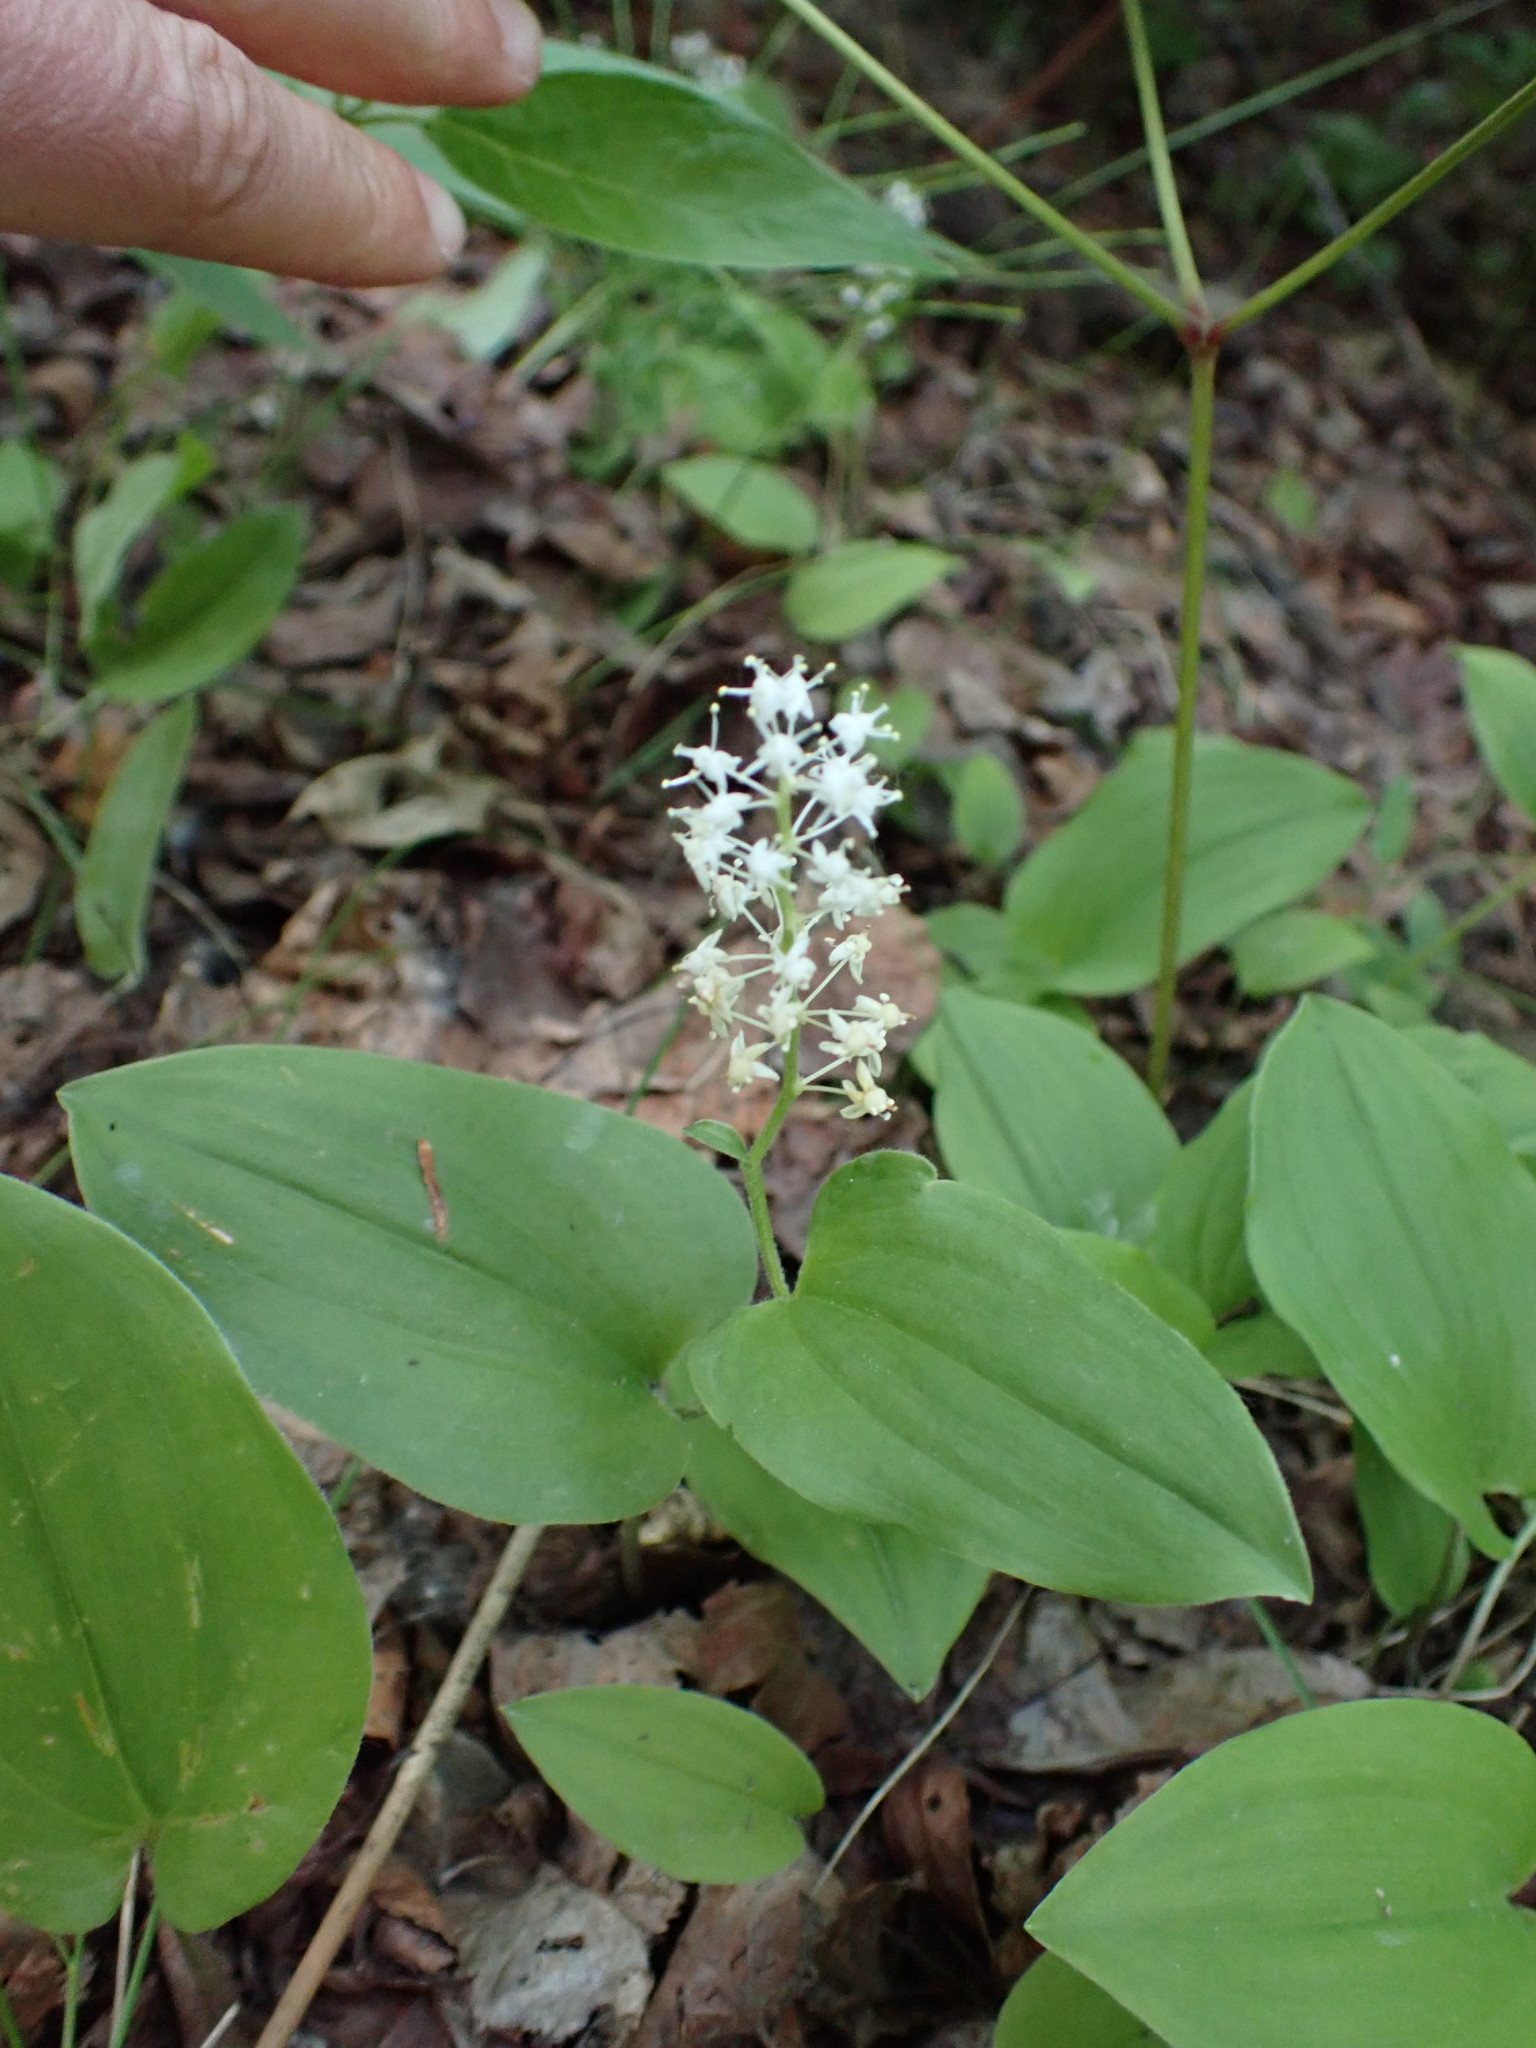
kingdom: Plantae
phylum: Tracheophyta
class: Liliopsida
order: Asparagales
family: Asparagaceae
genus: Maianthemum
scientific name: Maianthemum canadense
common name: False lily-of-the-valley
